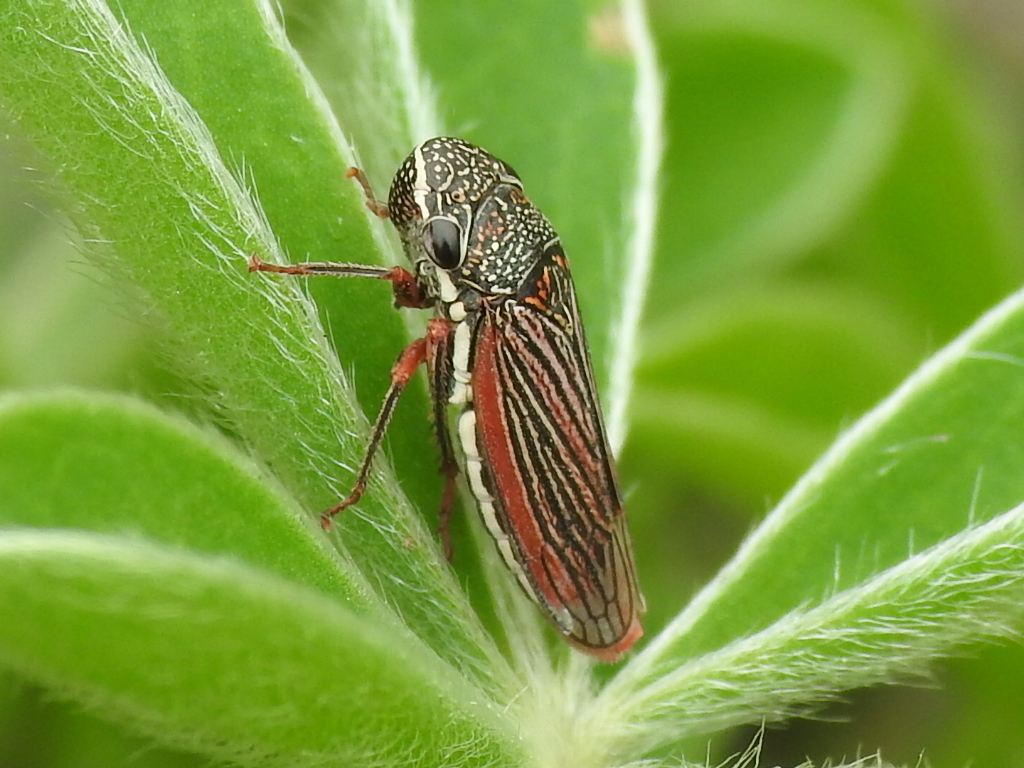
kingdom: Animalia
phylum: Arthropoda
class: Insecta
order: Hemiptera
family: Cicadellidae
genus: Cuerna
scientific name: Cuerna costalis
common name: Lateral-lined sharpshooter
